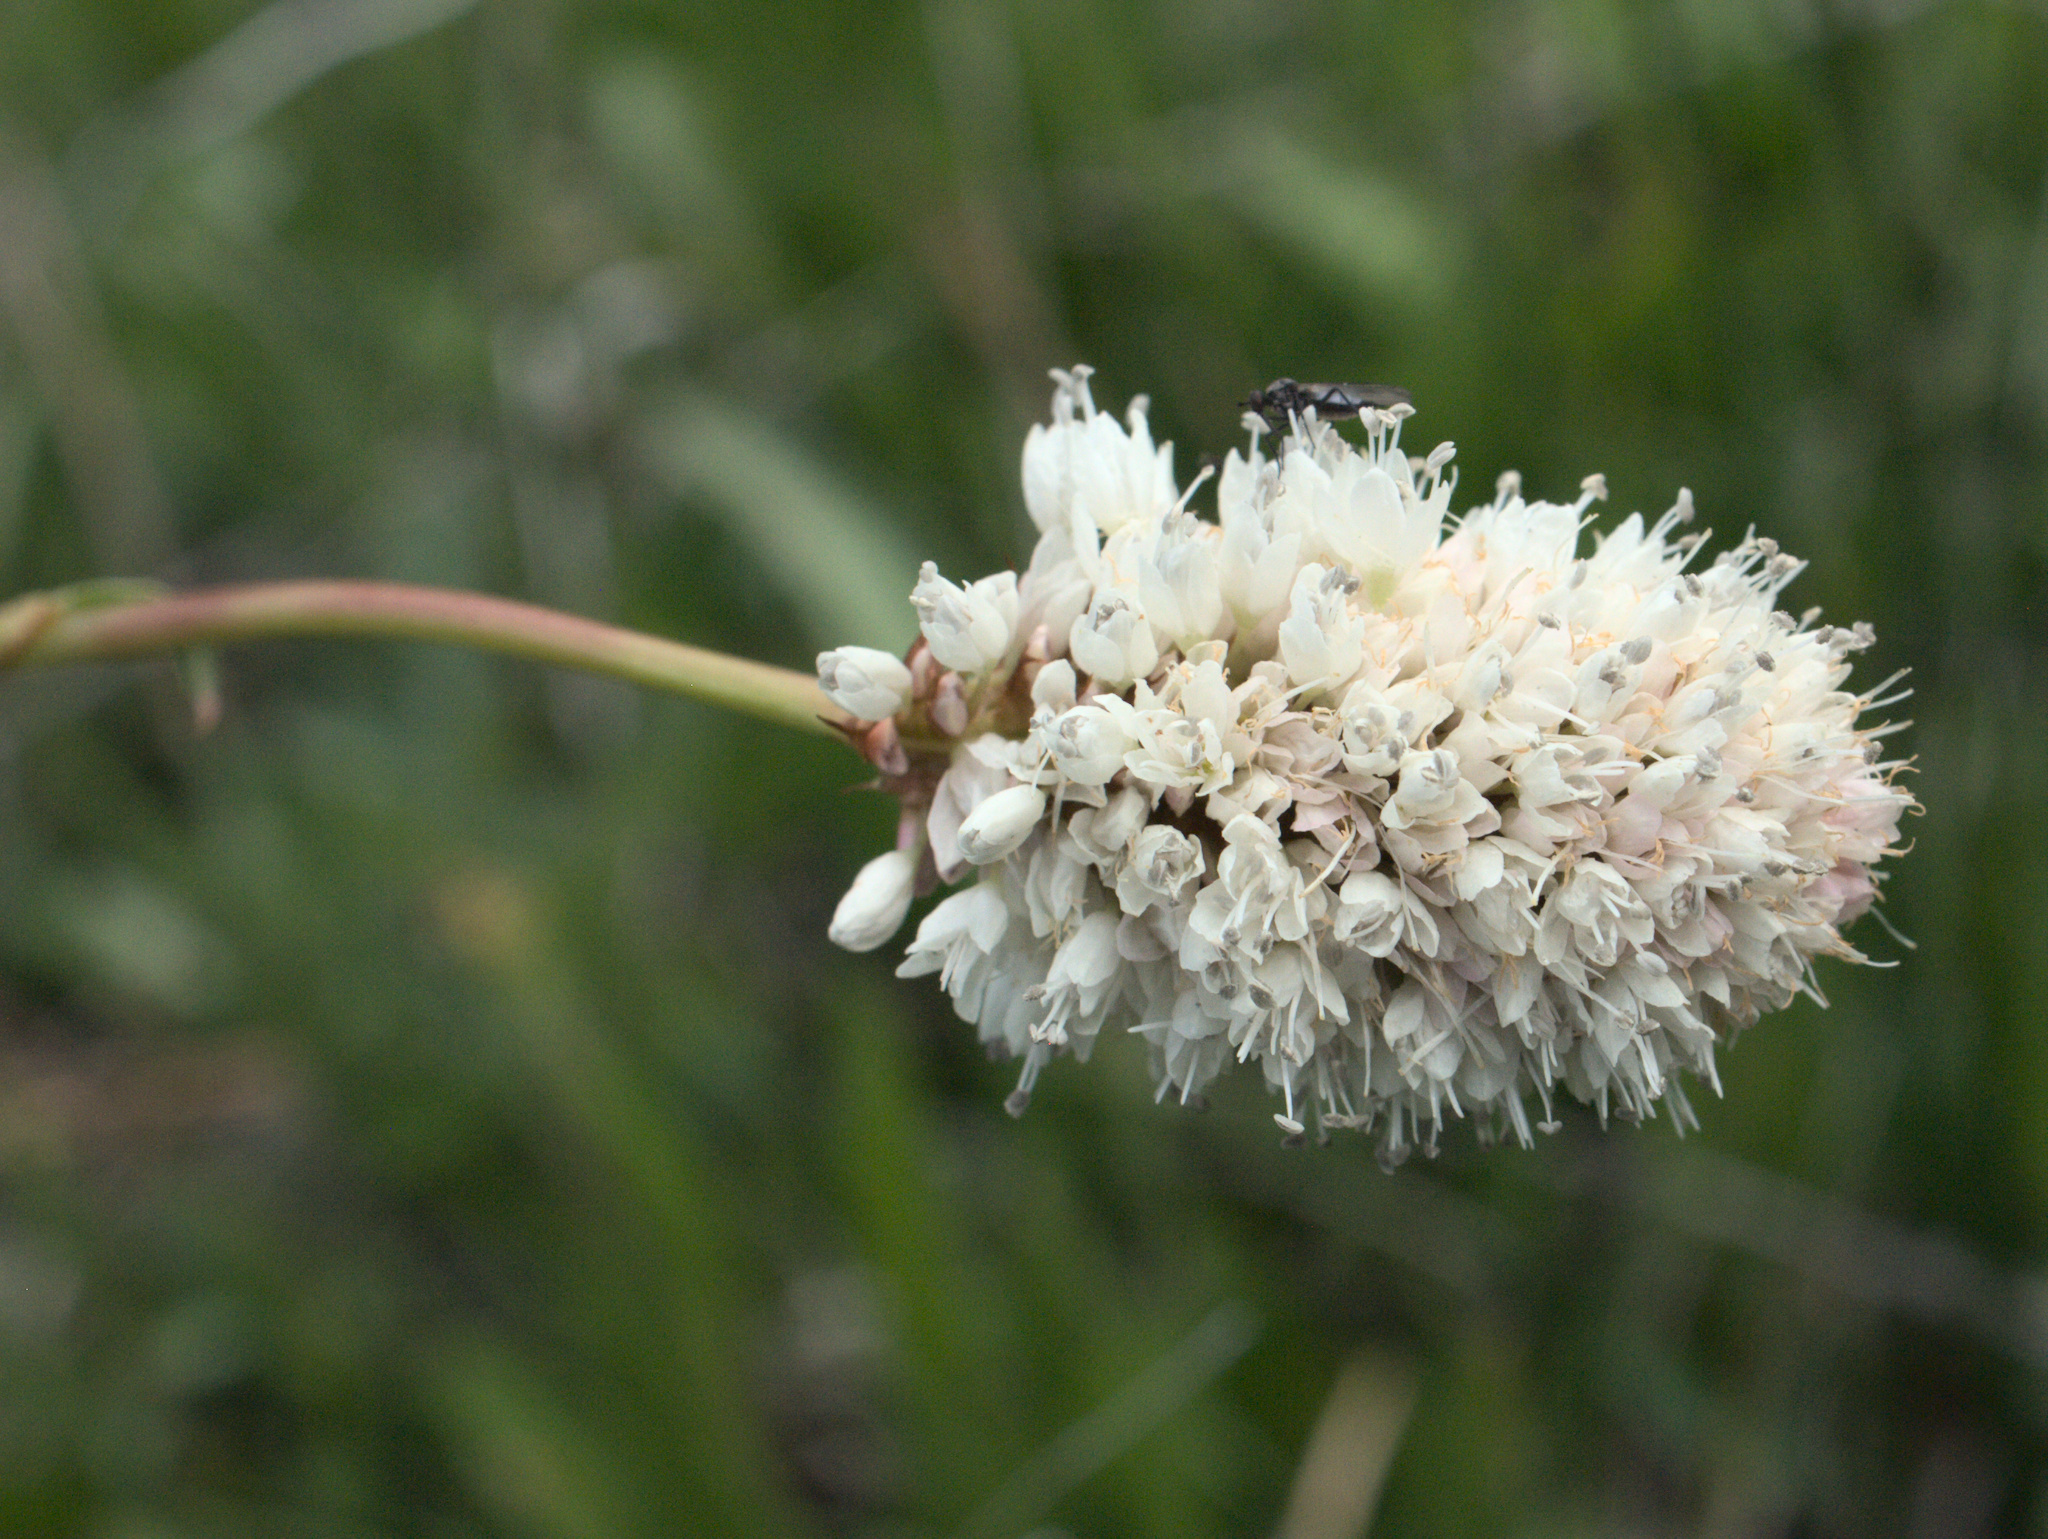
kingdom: Plantae
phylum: Tracheophyta
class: Magnoliopsida
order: Caryophyllales
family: Polygonaceae
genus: Bistorta
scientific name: Bistorta bistortoides
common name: American bistort
